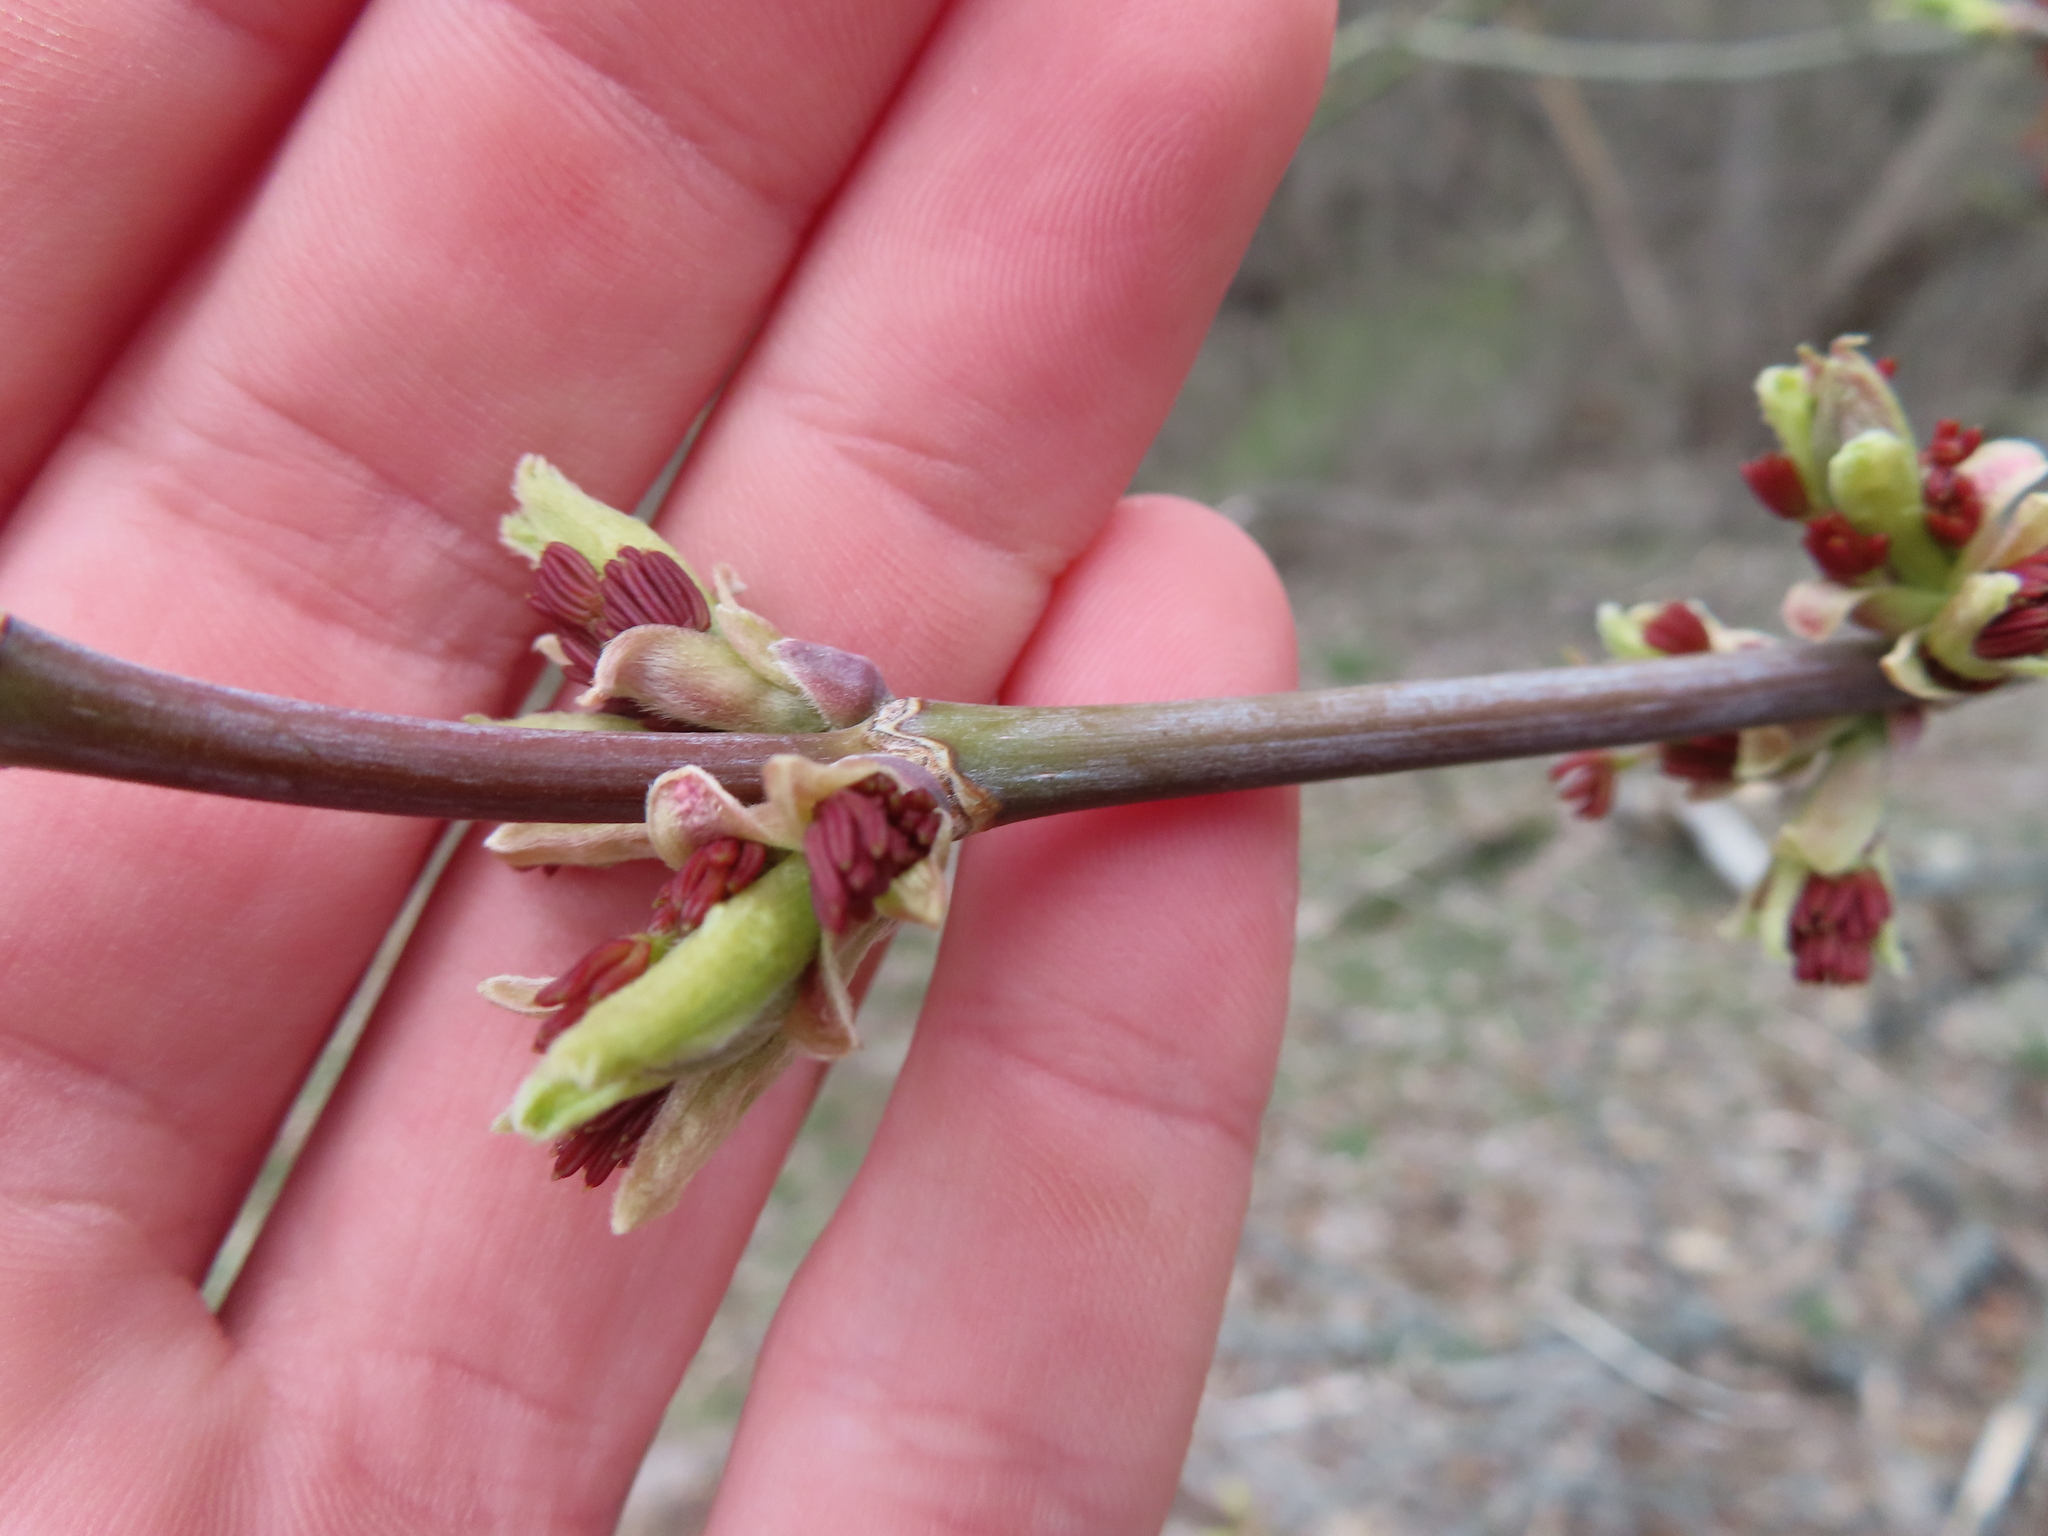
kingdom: Plantae
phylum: Tracheophyta
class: Magnoliopsida
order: Sapindales
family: Sapindaceae
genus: Acer
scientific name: Acer negundo
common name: Ashleaf maple
